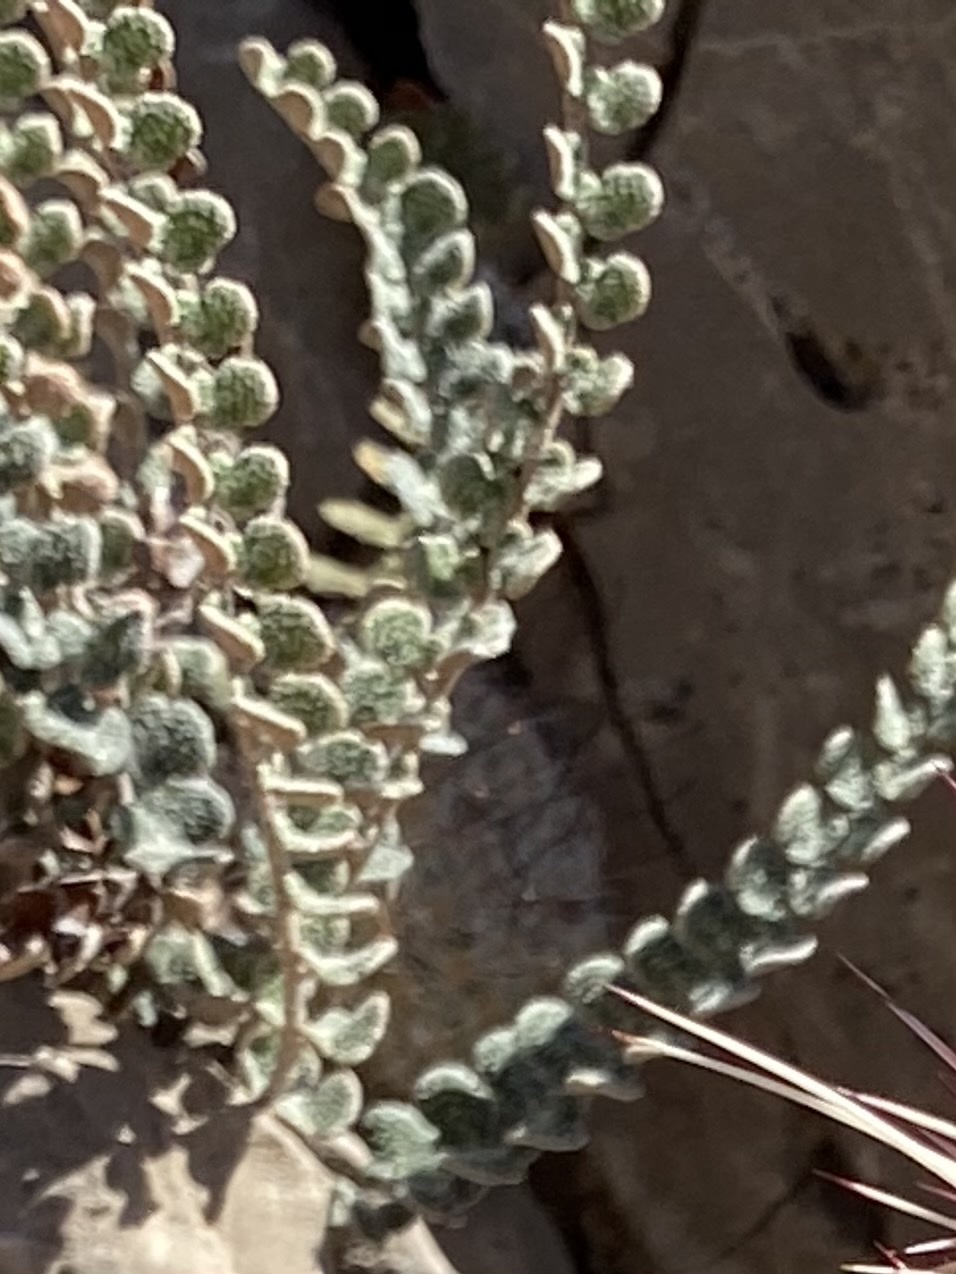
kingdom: Plantae
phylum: Tracheophyta
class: Polypodiopsida
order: Polypodiales
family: Pteridaceae
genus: Astrolepis
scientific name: Astrolepis cochisensis
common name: Scaly cloak fern
